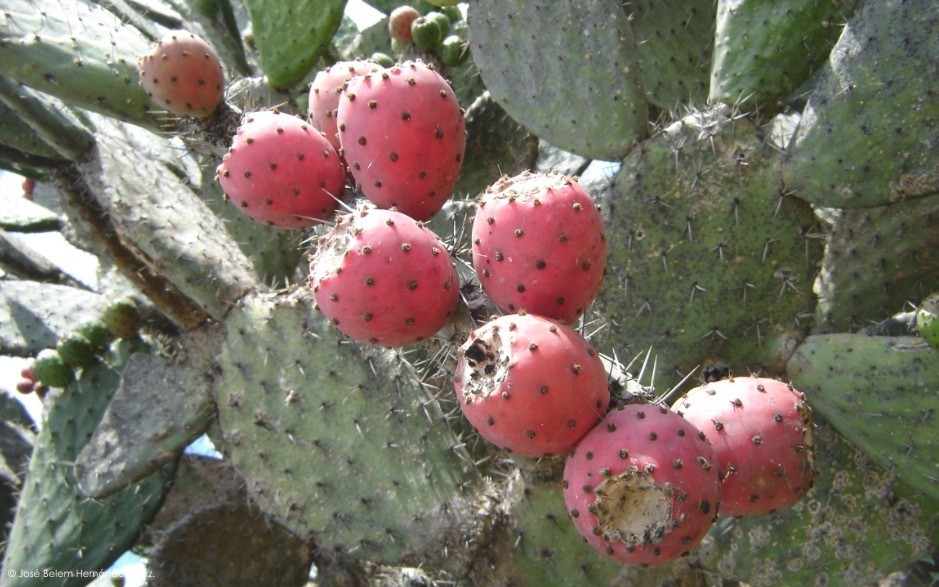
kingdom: Plantae
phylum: Tracheophyta
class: Magnoliopsida
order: Caryophyllales
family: Cactaceae
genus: Opuntia
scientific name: Opuntia stenopetala
